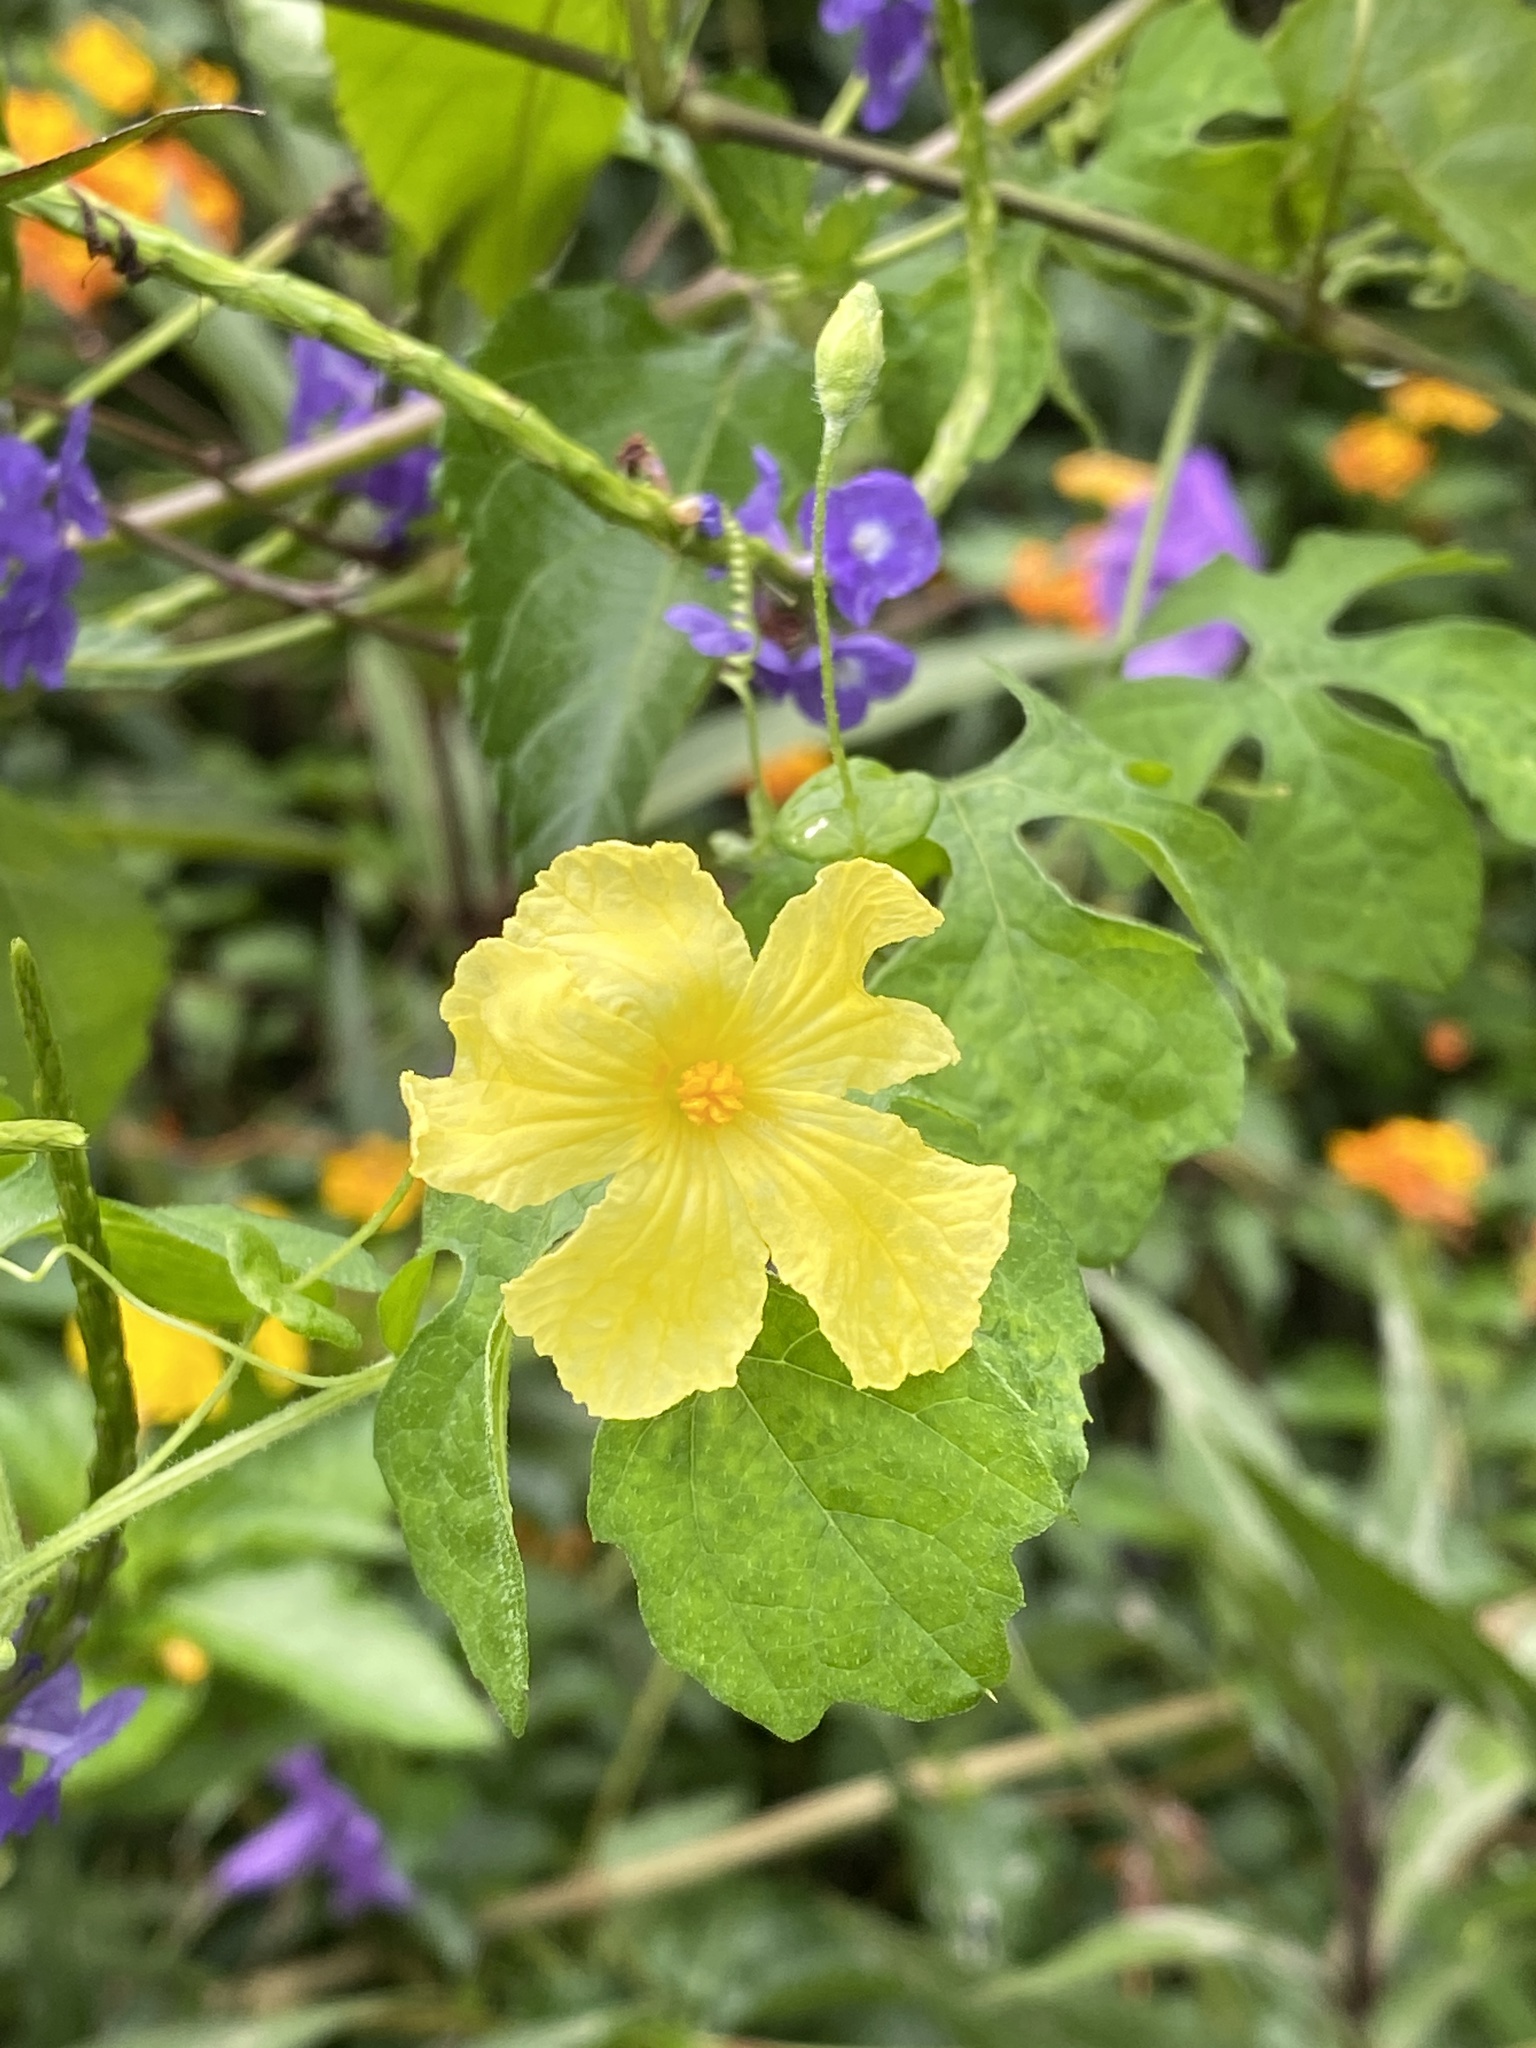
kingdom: Plantae
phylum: Tracheophyta
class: Magnoliopsida
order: Cucurbitales
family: Cucurbitaceae
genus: Momordica
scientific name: Momordica charantia
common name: Balsampear
